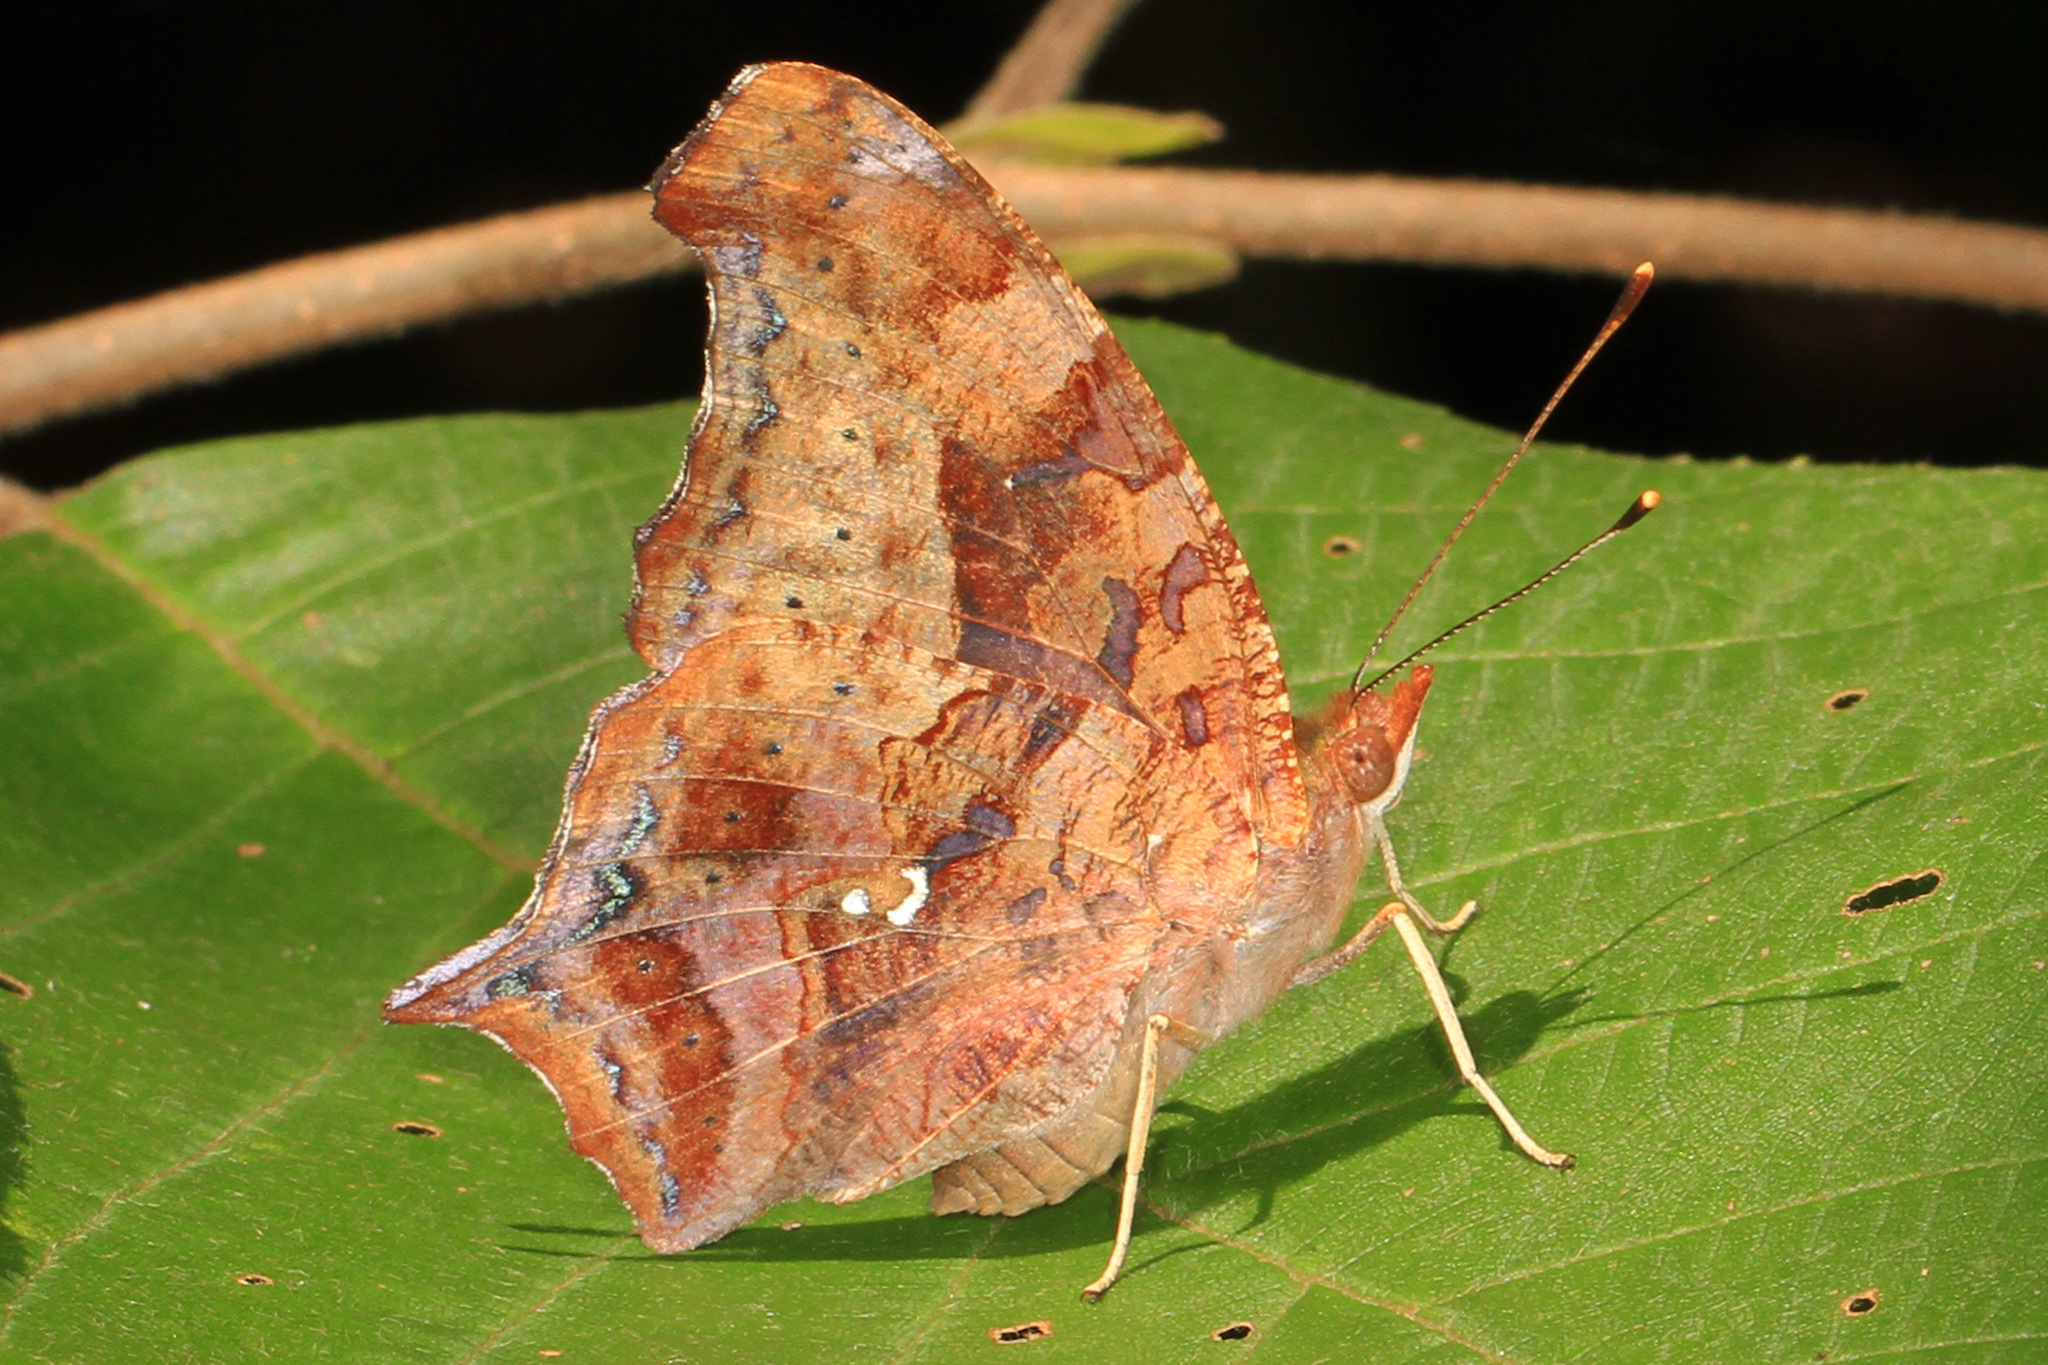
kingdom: Animalia
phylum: Arthropoda
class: Insecta
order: Lepidoptera
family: Nymphalidae
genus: Polygonia
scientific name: Polygonia interrogationis
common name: Question mark
